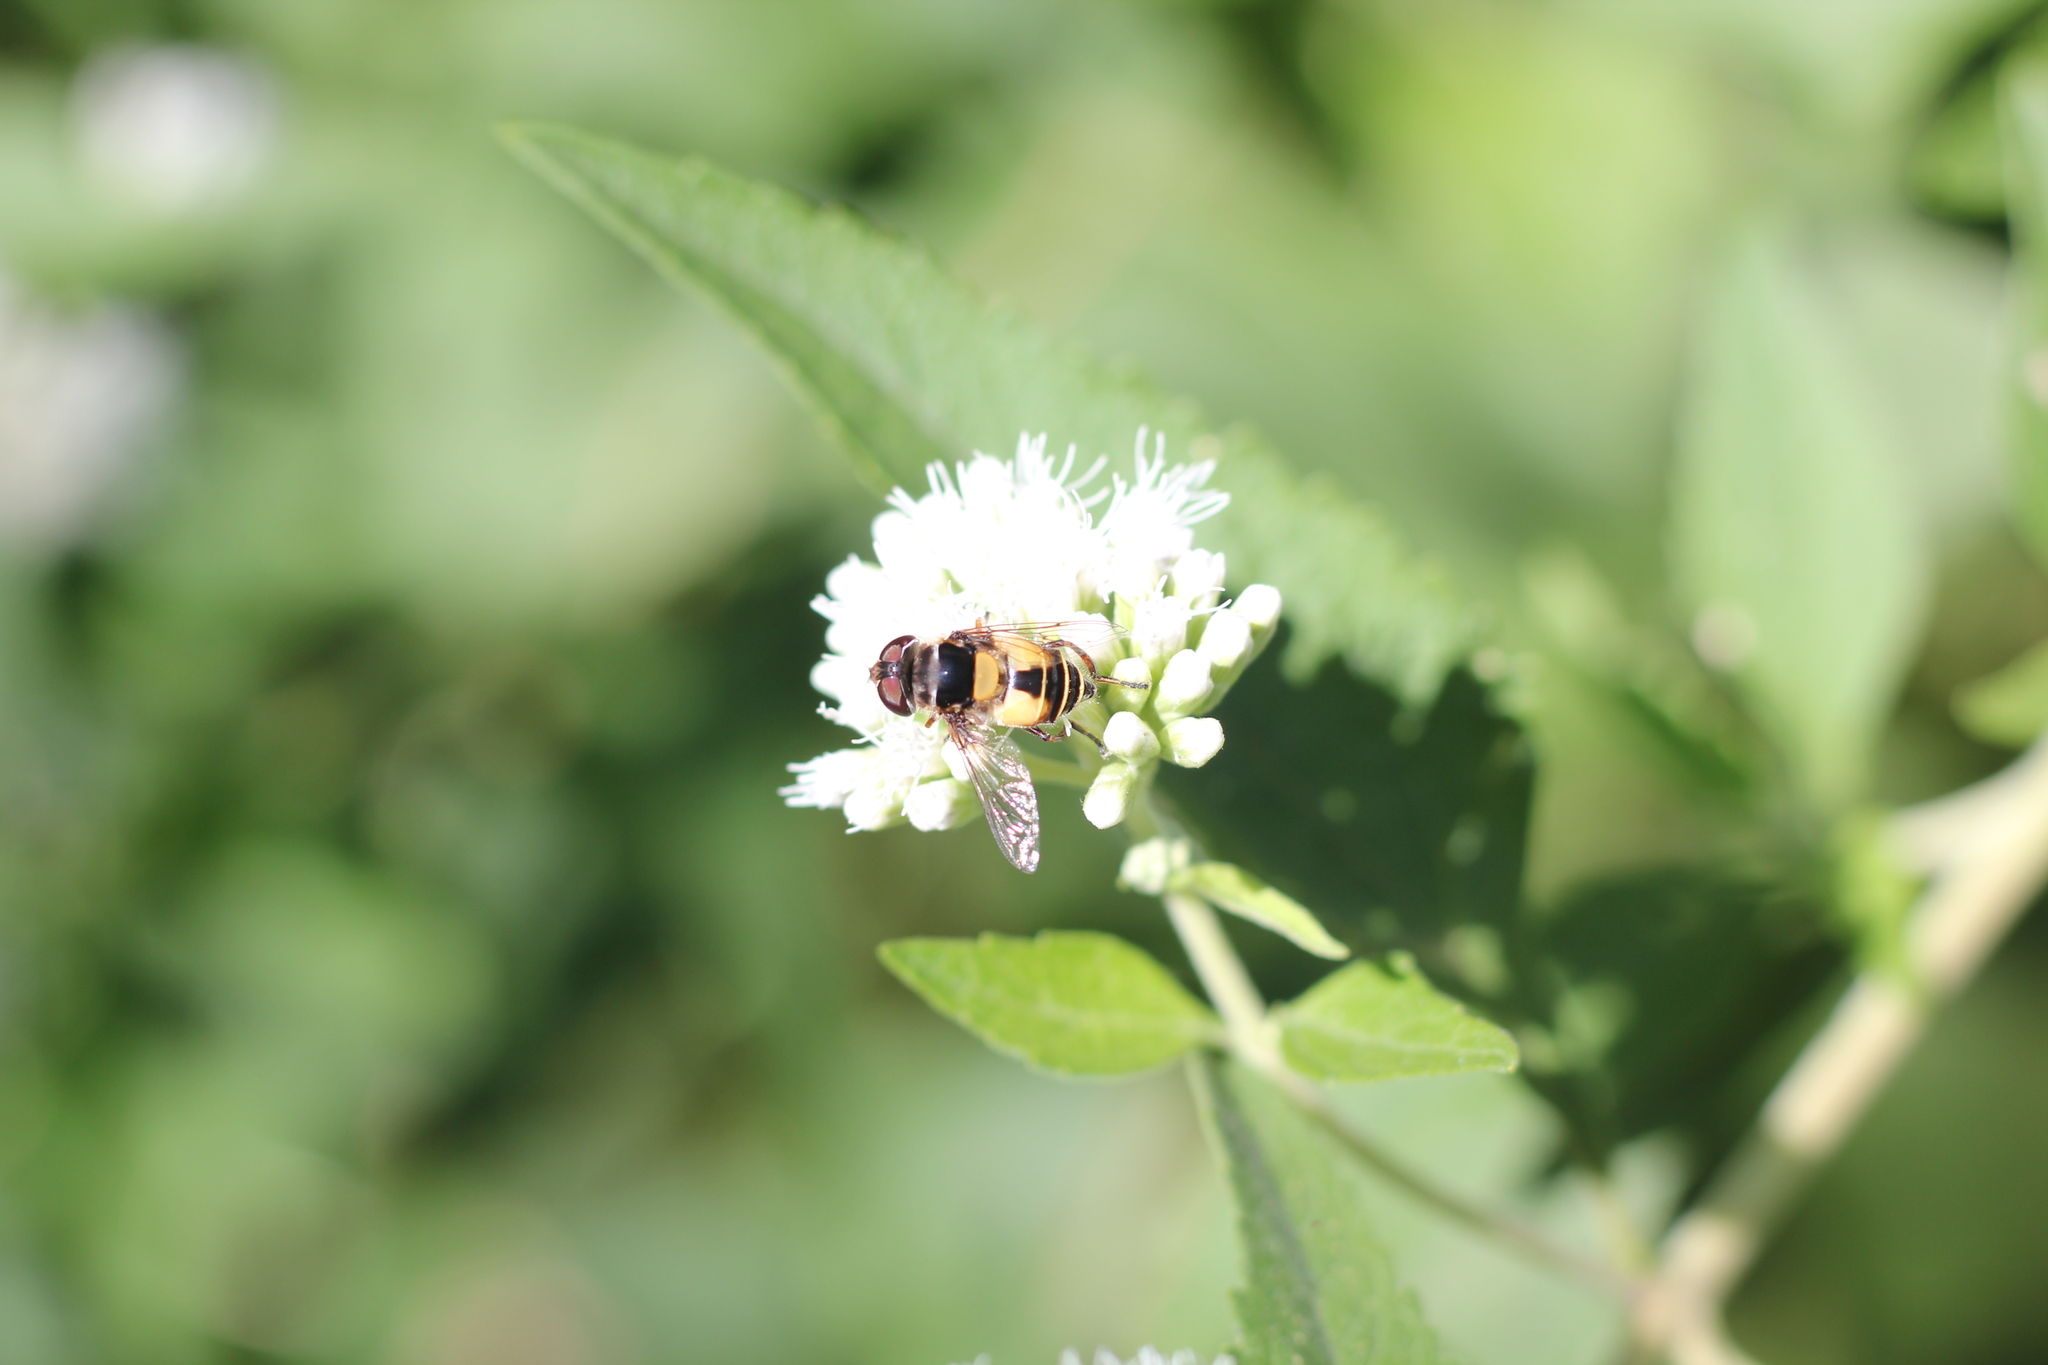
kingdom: Animalia
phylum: Arthropoda
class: Insecta
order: Diptera
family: Syrphidae
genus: Palpada
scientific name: Palpada
